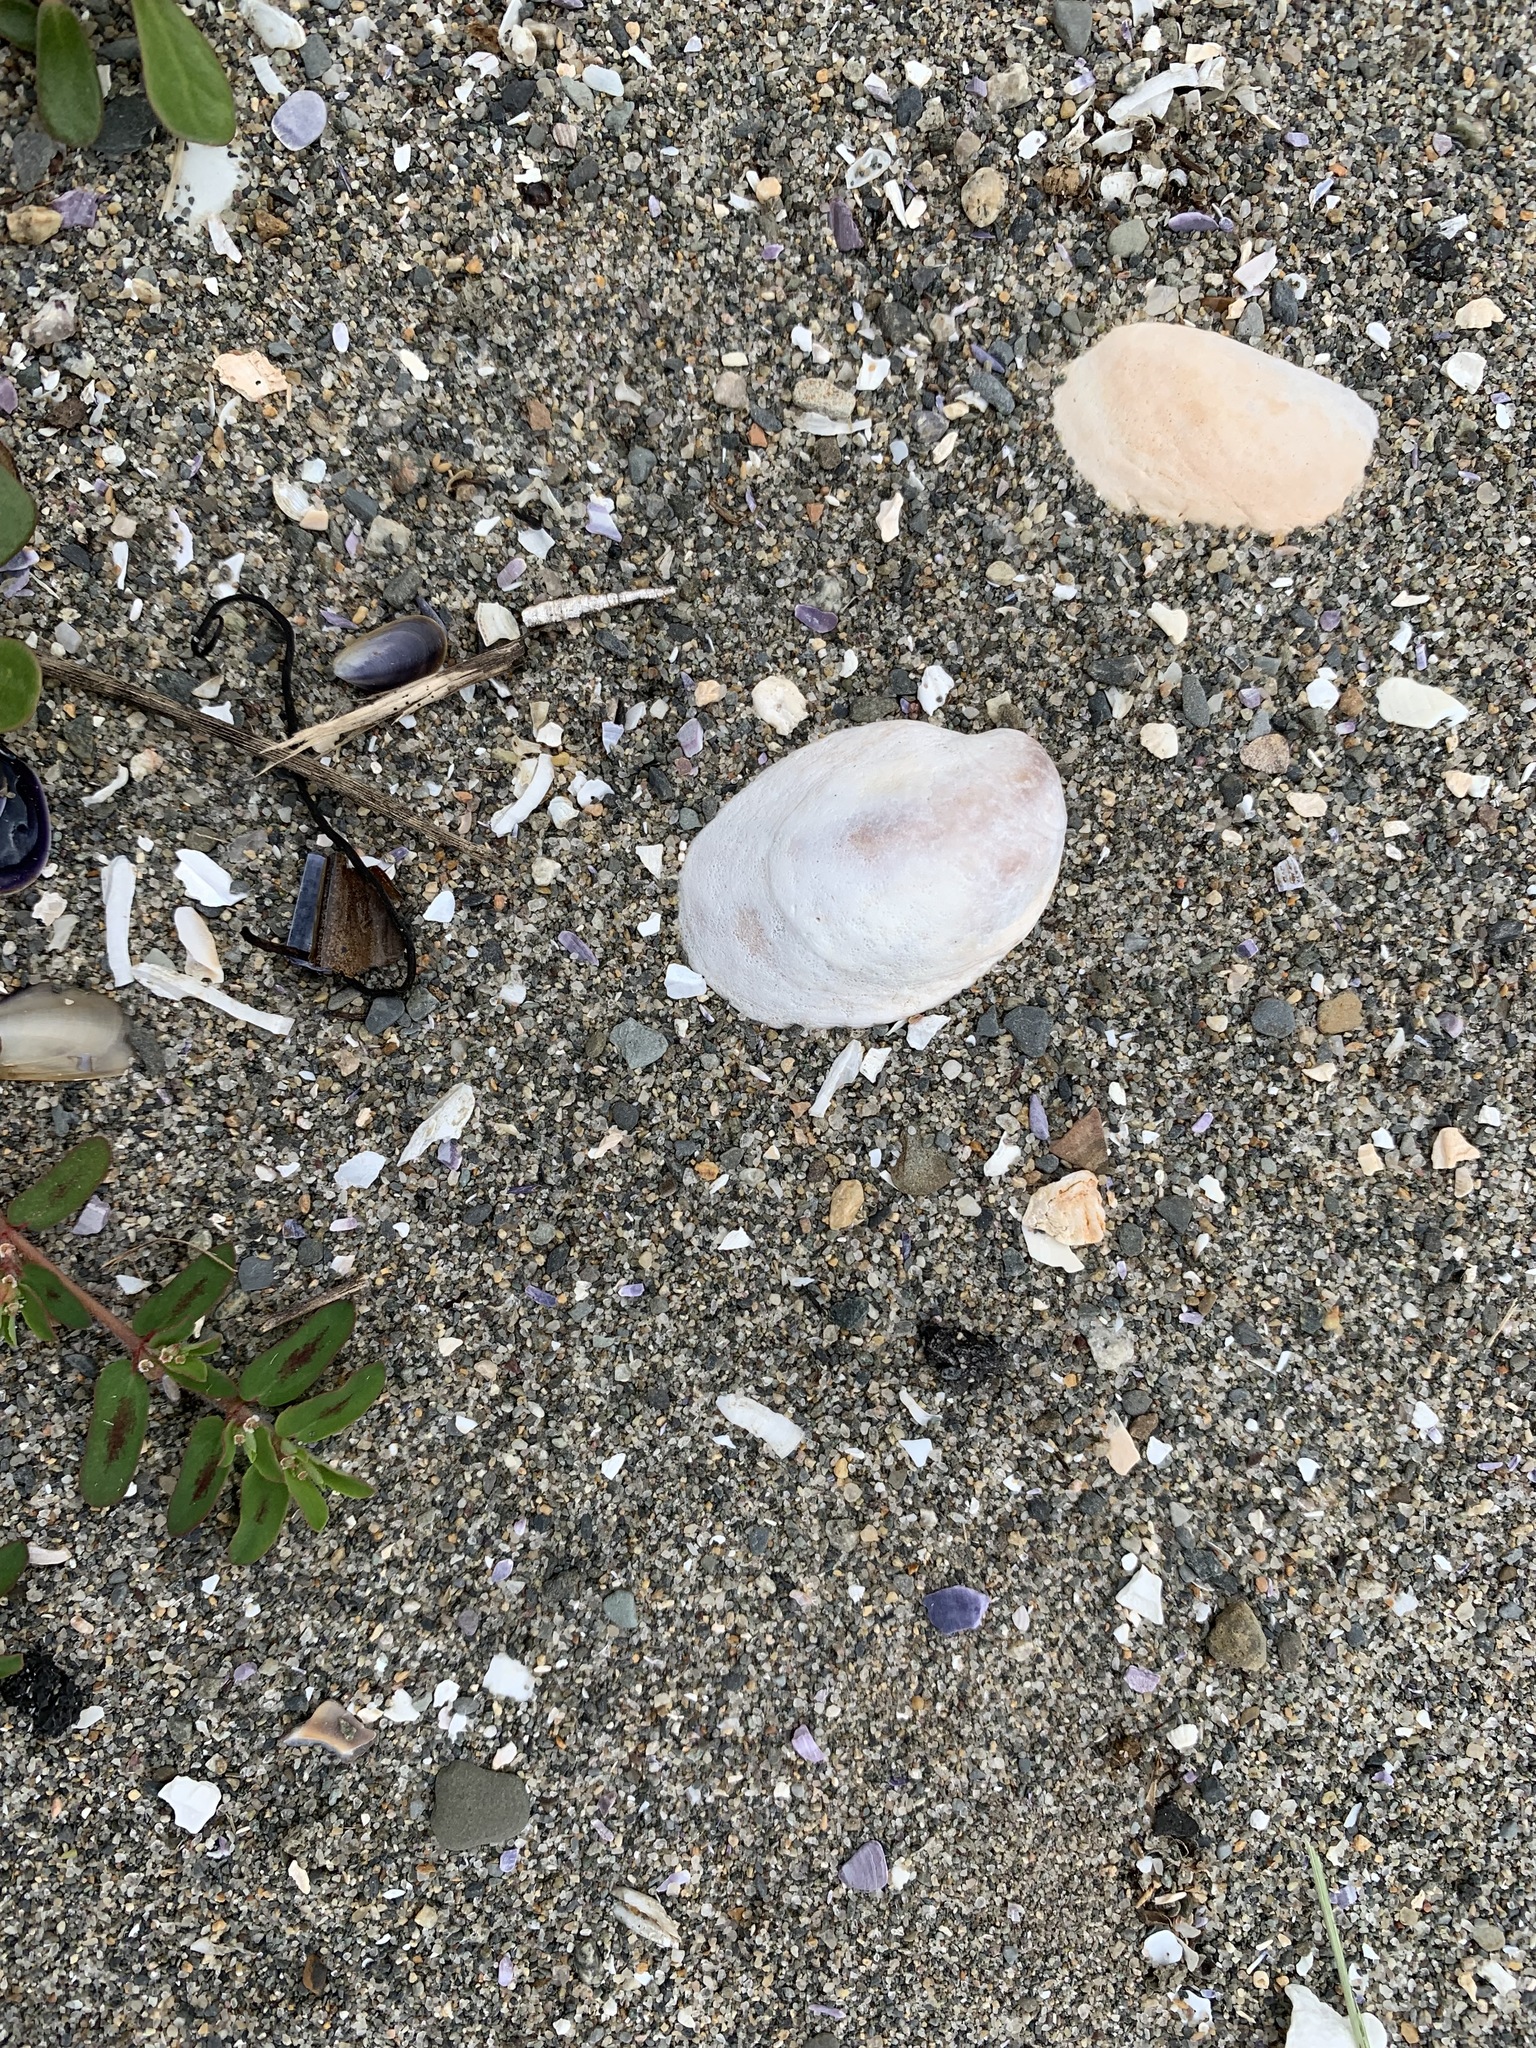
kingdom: Animalia
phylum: Mollusca
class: Gastropoda
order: Littorinimorpha
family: Calyptraeidae
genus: Crepidula
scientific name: Crepidula fornicata
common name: Slipper limpet
